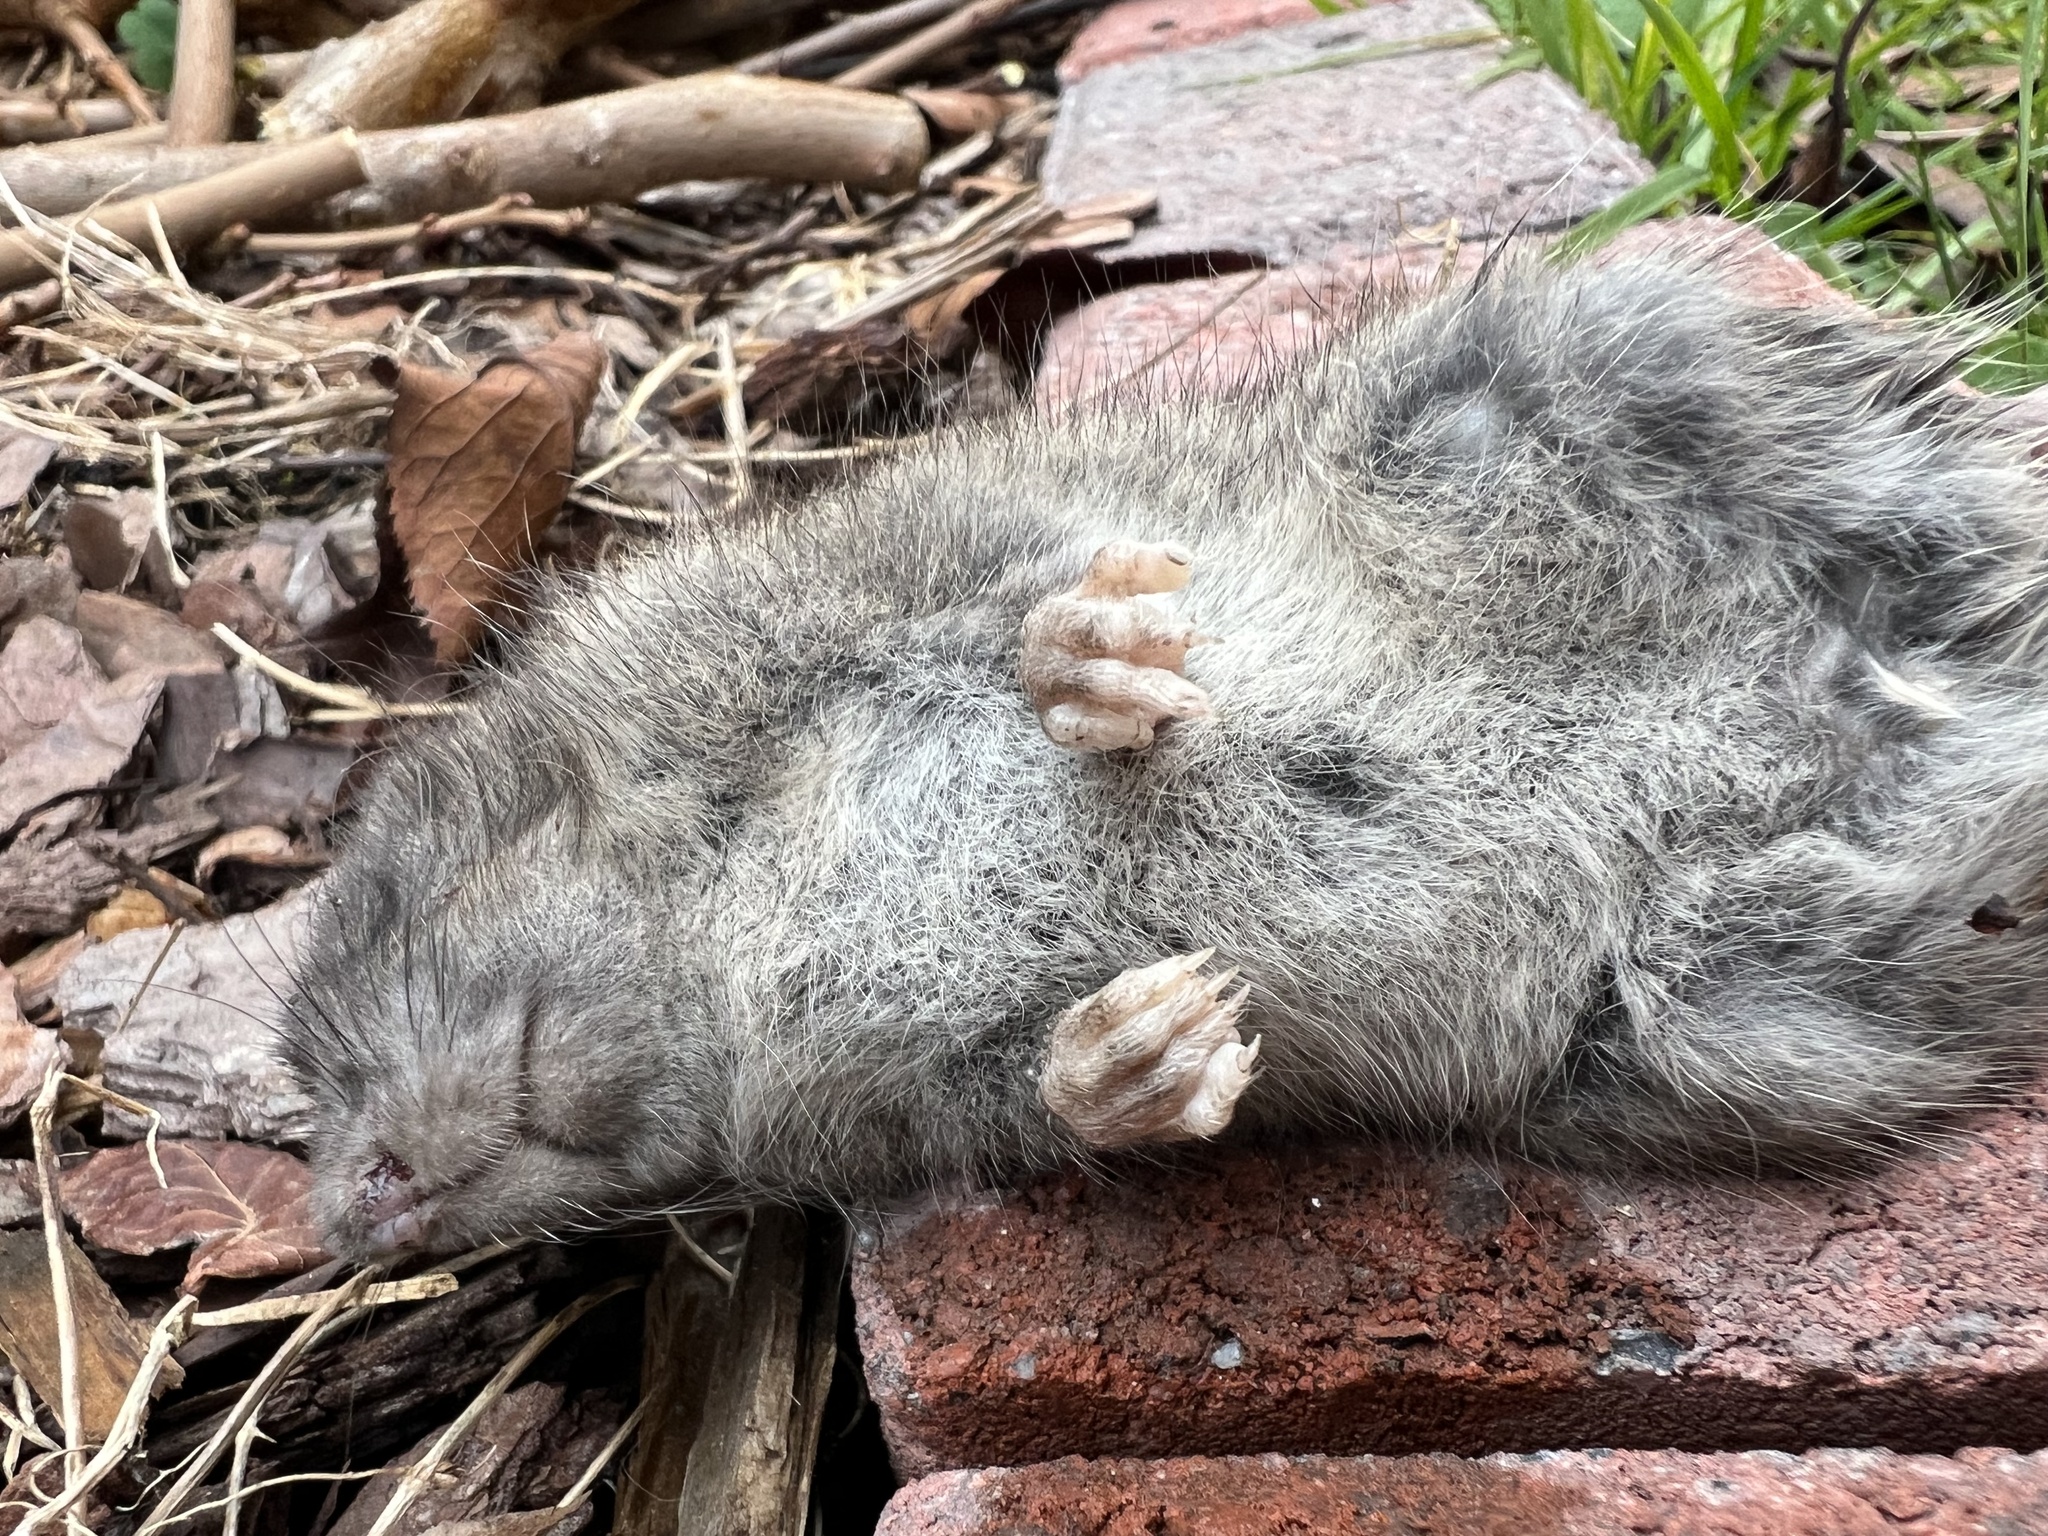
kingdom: Animalia
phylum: Chordata
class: Mammalia
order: Rodentia
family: Muridae
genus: Rattus
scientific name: Rattus norvegicus
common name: Brown rat
